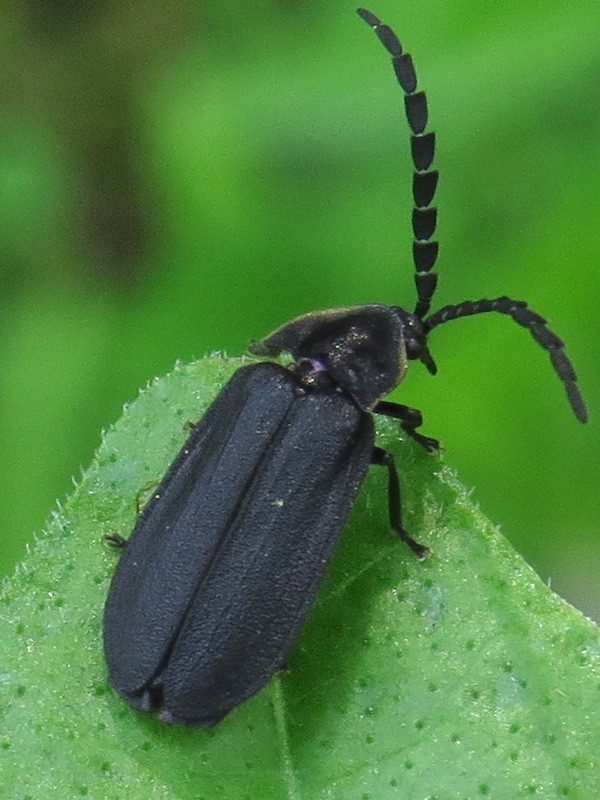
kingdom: Animalia
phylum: Arthropoda
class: Insecta
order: Coleoptera
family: Lampyridae
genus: Lucidota
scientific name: Lucidota atra
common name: Black firefly
